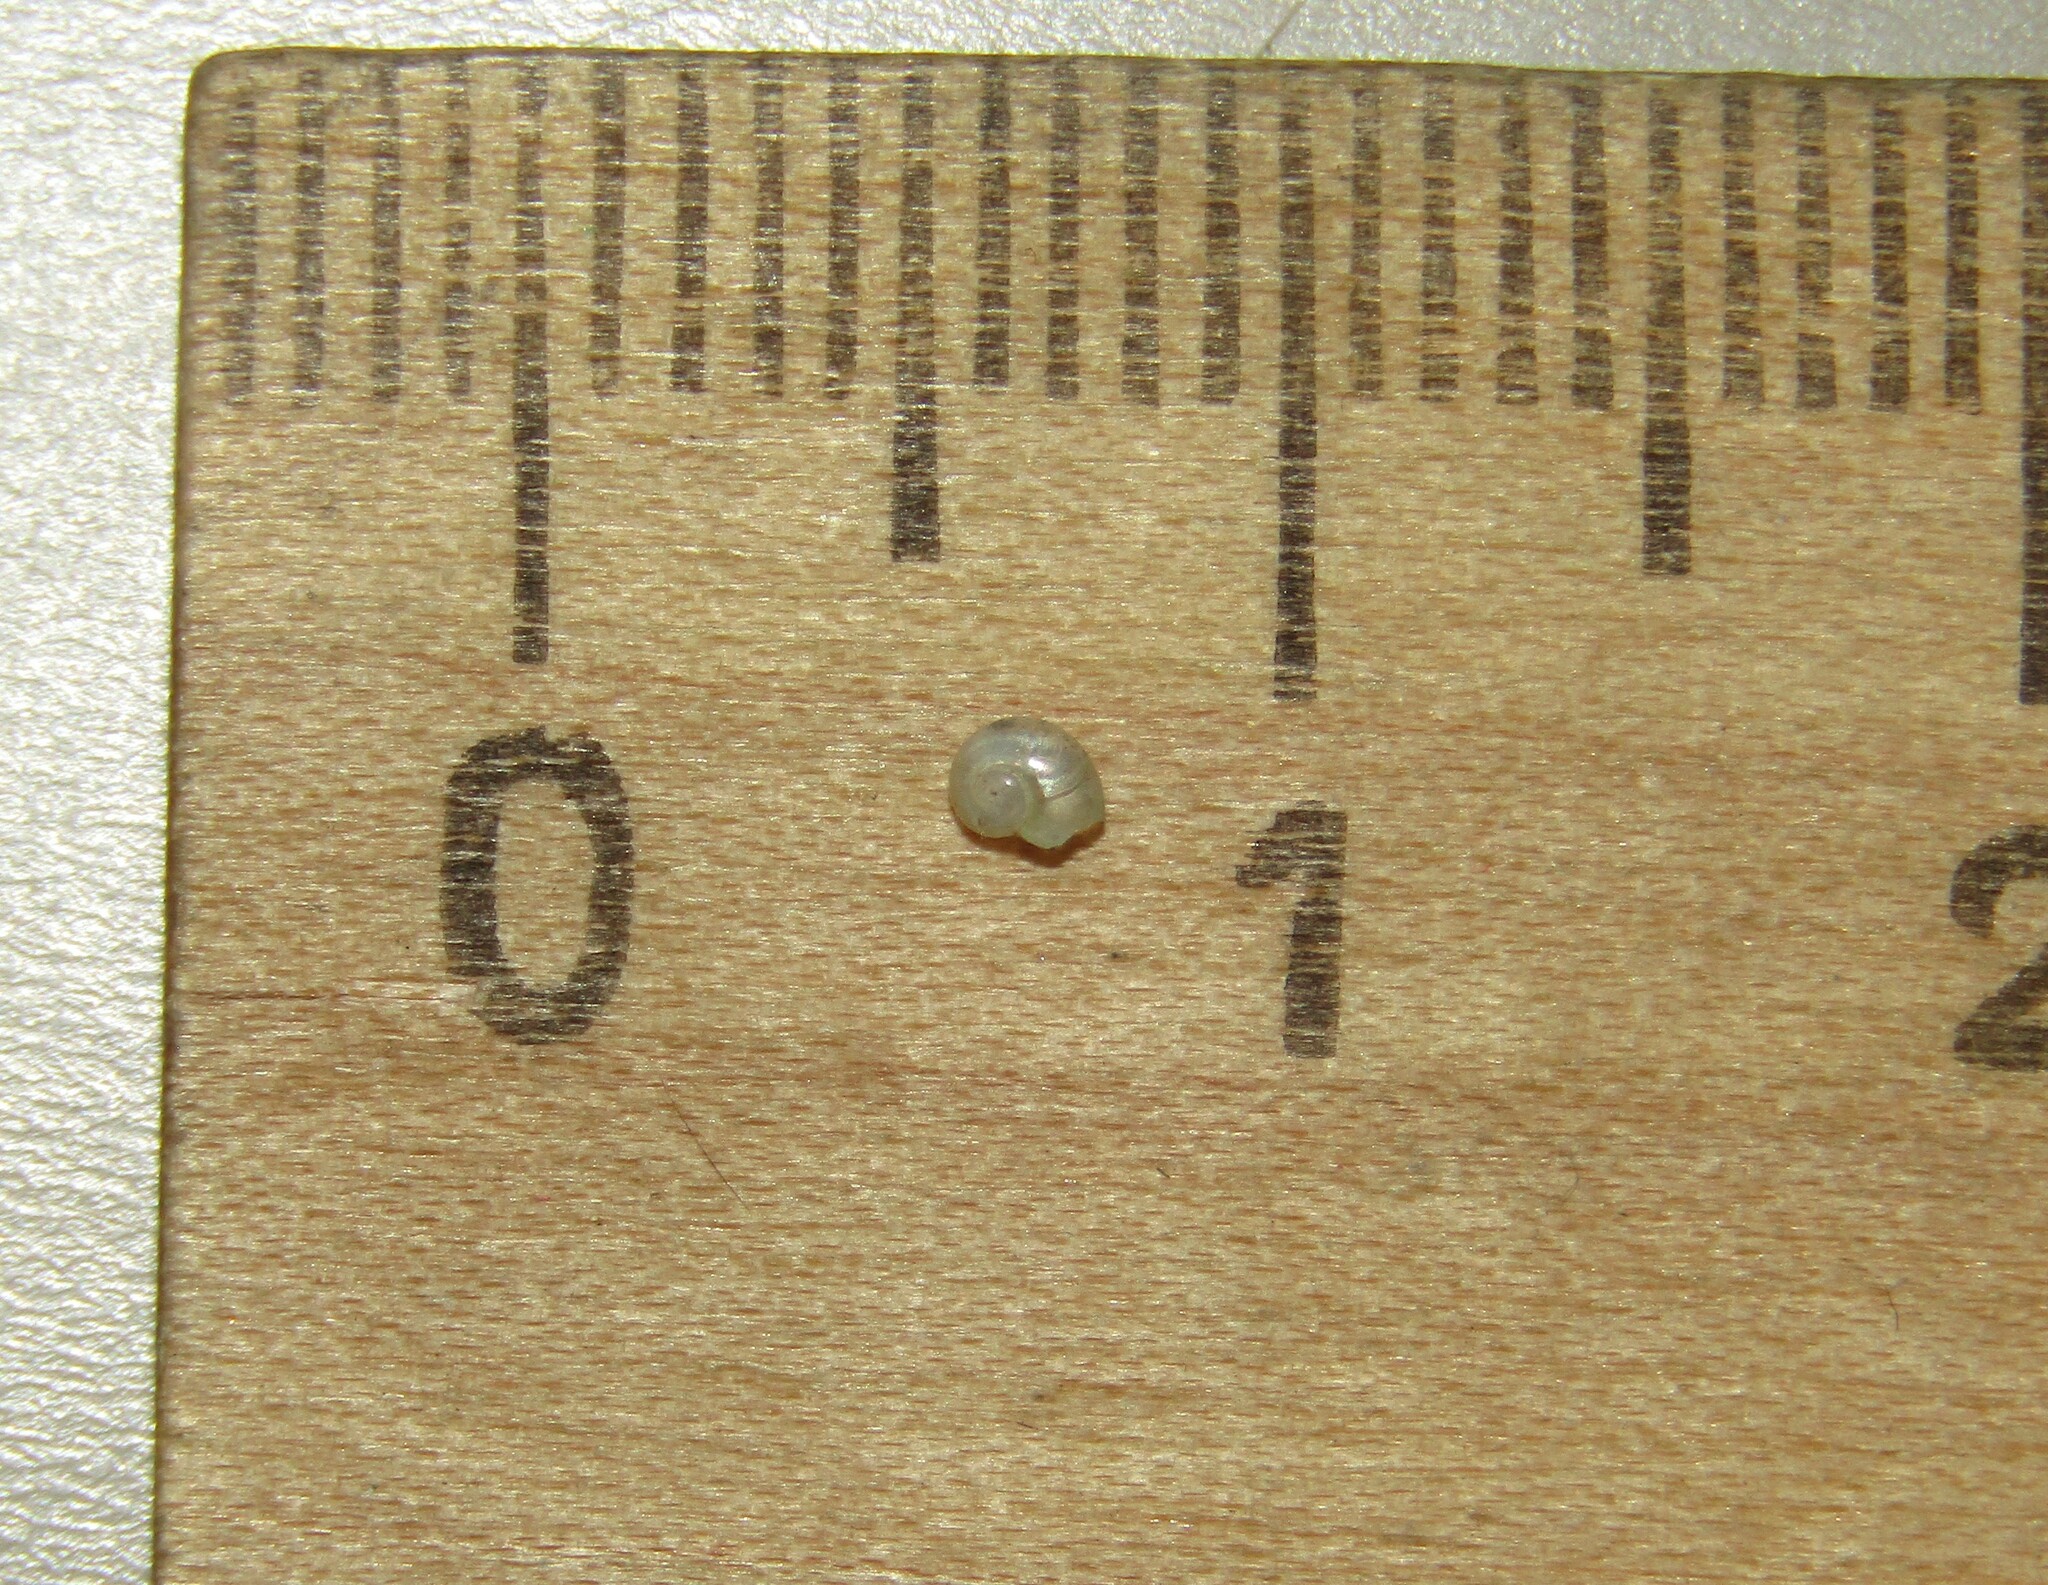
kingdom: Animalia
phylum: Mollusca
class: Gastropoda
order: Stylommatophora
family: Vitrinidae
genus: Vitrina
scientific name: Vitrina pellucida
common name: Pellucid glass snail
